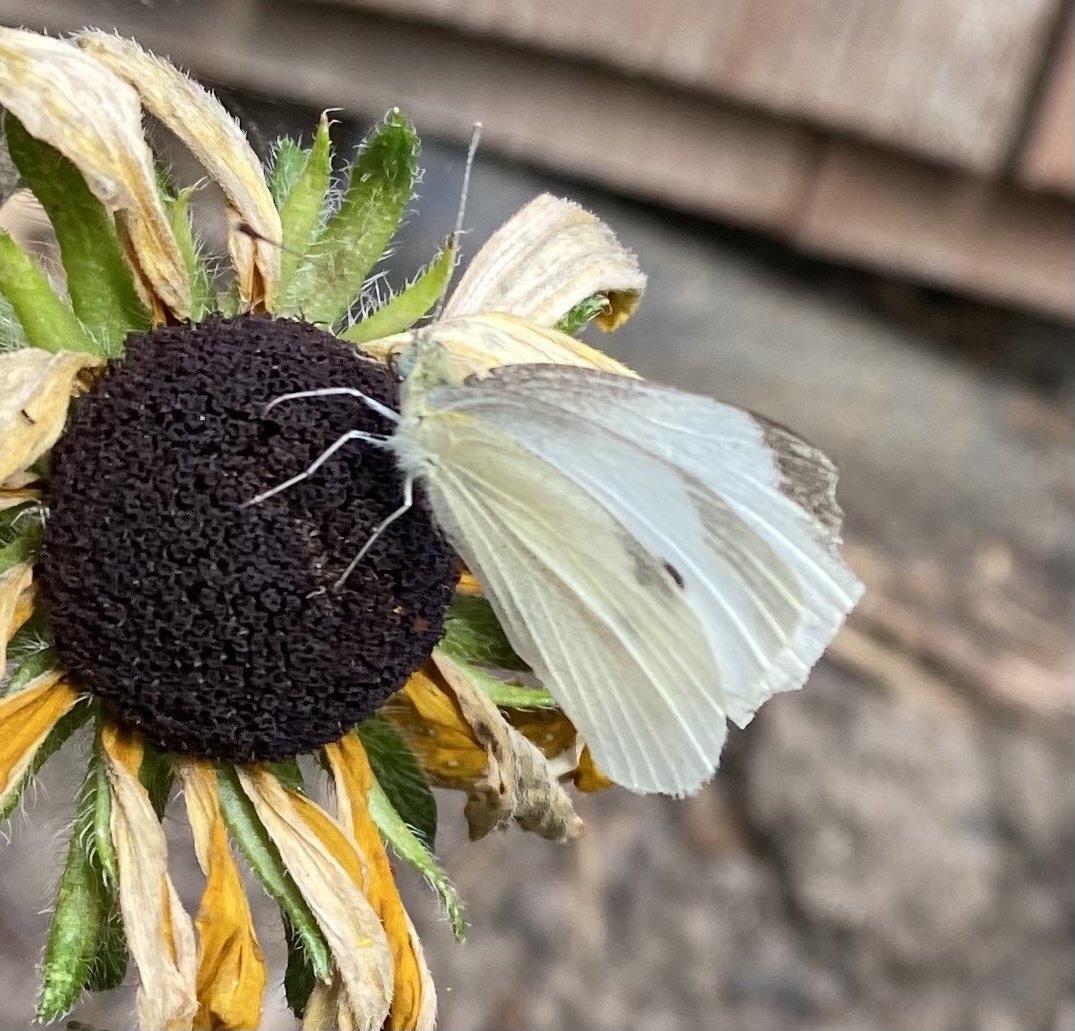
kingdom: Animalia
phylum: Arthropoda
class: Insecta
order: Lepidoptera
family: Pieridae
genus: Pieris
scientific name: Pieris rapae
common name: Small white
